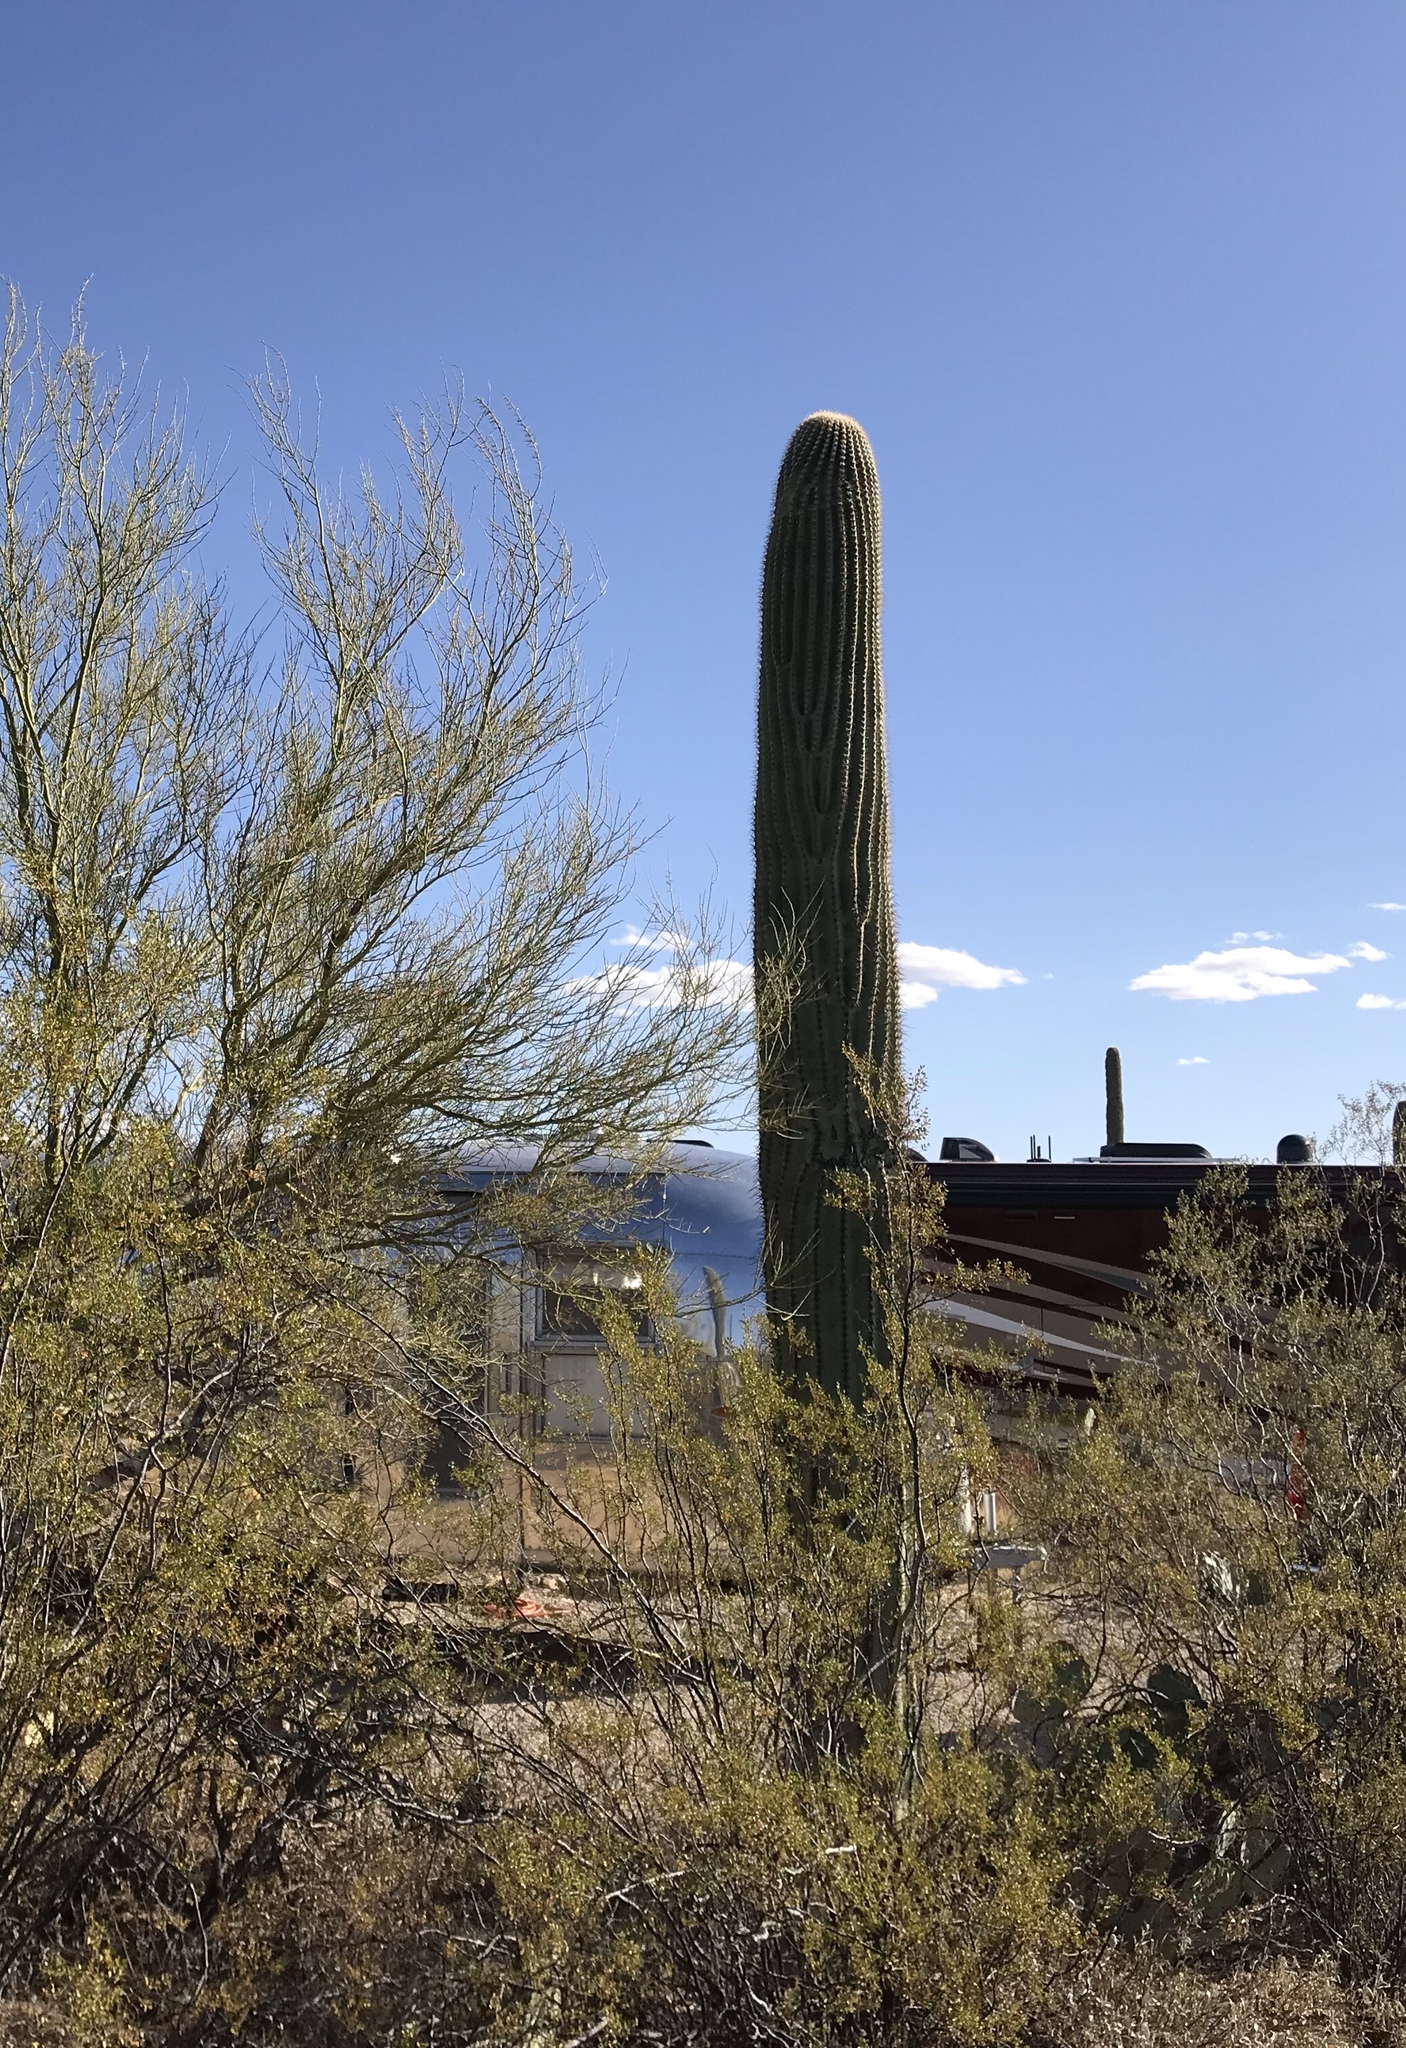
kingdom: Plantae
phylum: Tracheophyta
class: Magnoliopsida
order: Caryophyllales
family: Cactaceae
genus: Carnegiea
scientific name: Carnegiea gigantea
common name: Saguaro
